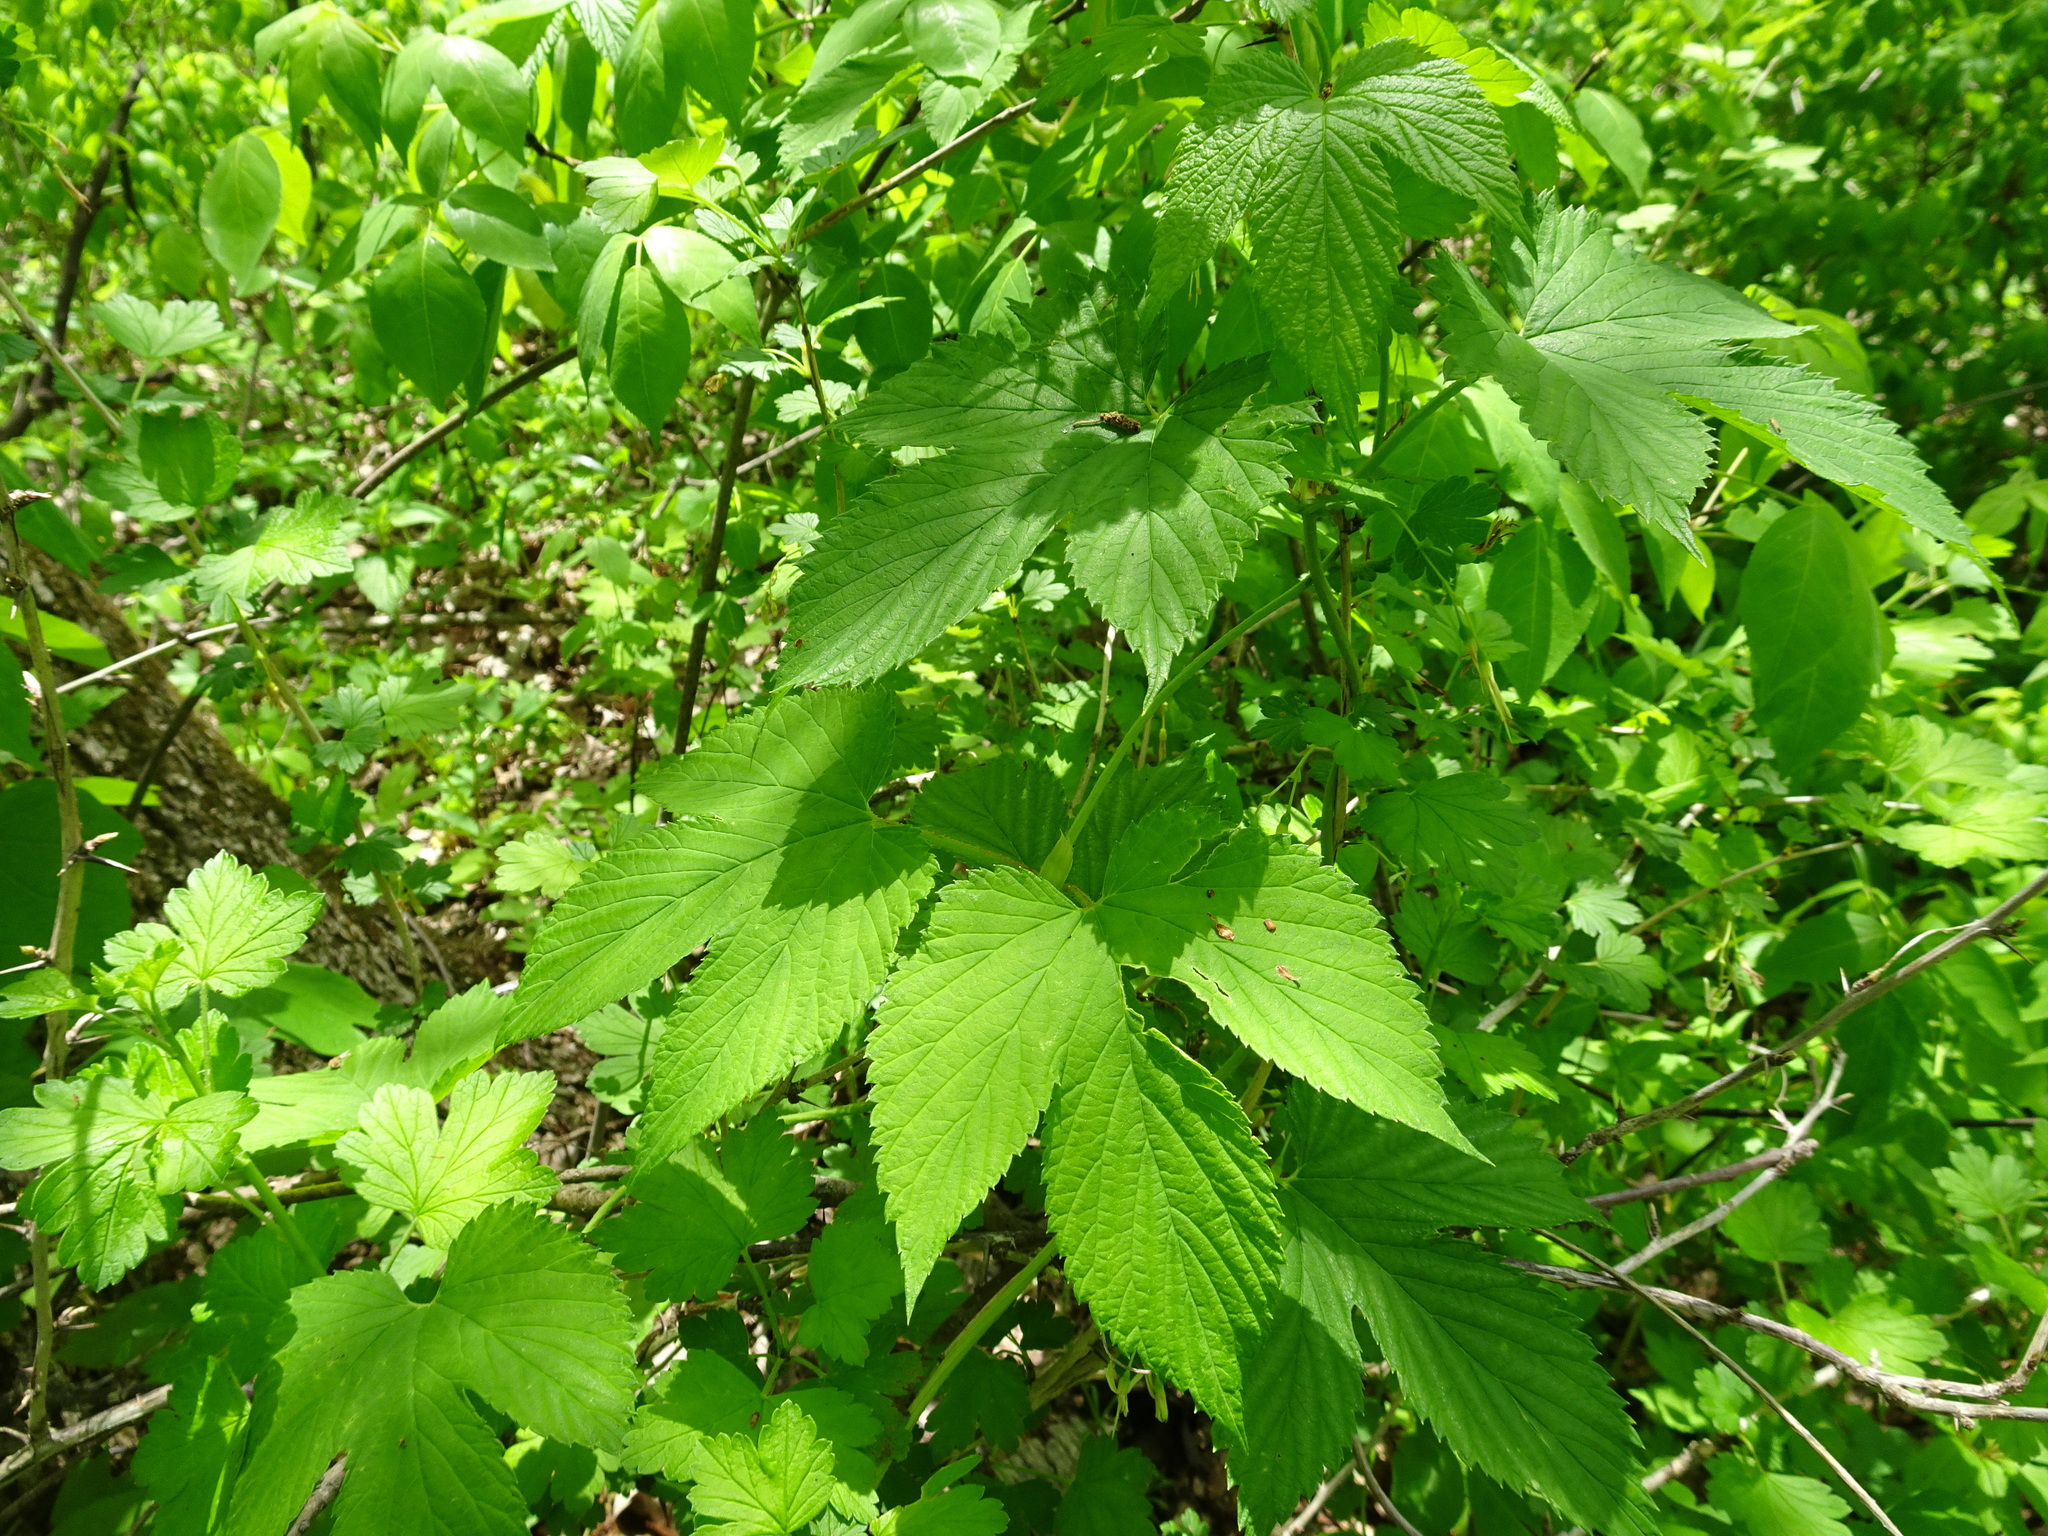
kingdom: Plantae
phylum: Tracheophyta
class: Magnoliopsida
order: Rosales
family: Cannabaceae
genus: Humulus
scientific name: Humulus lupulus
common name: Hop
